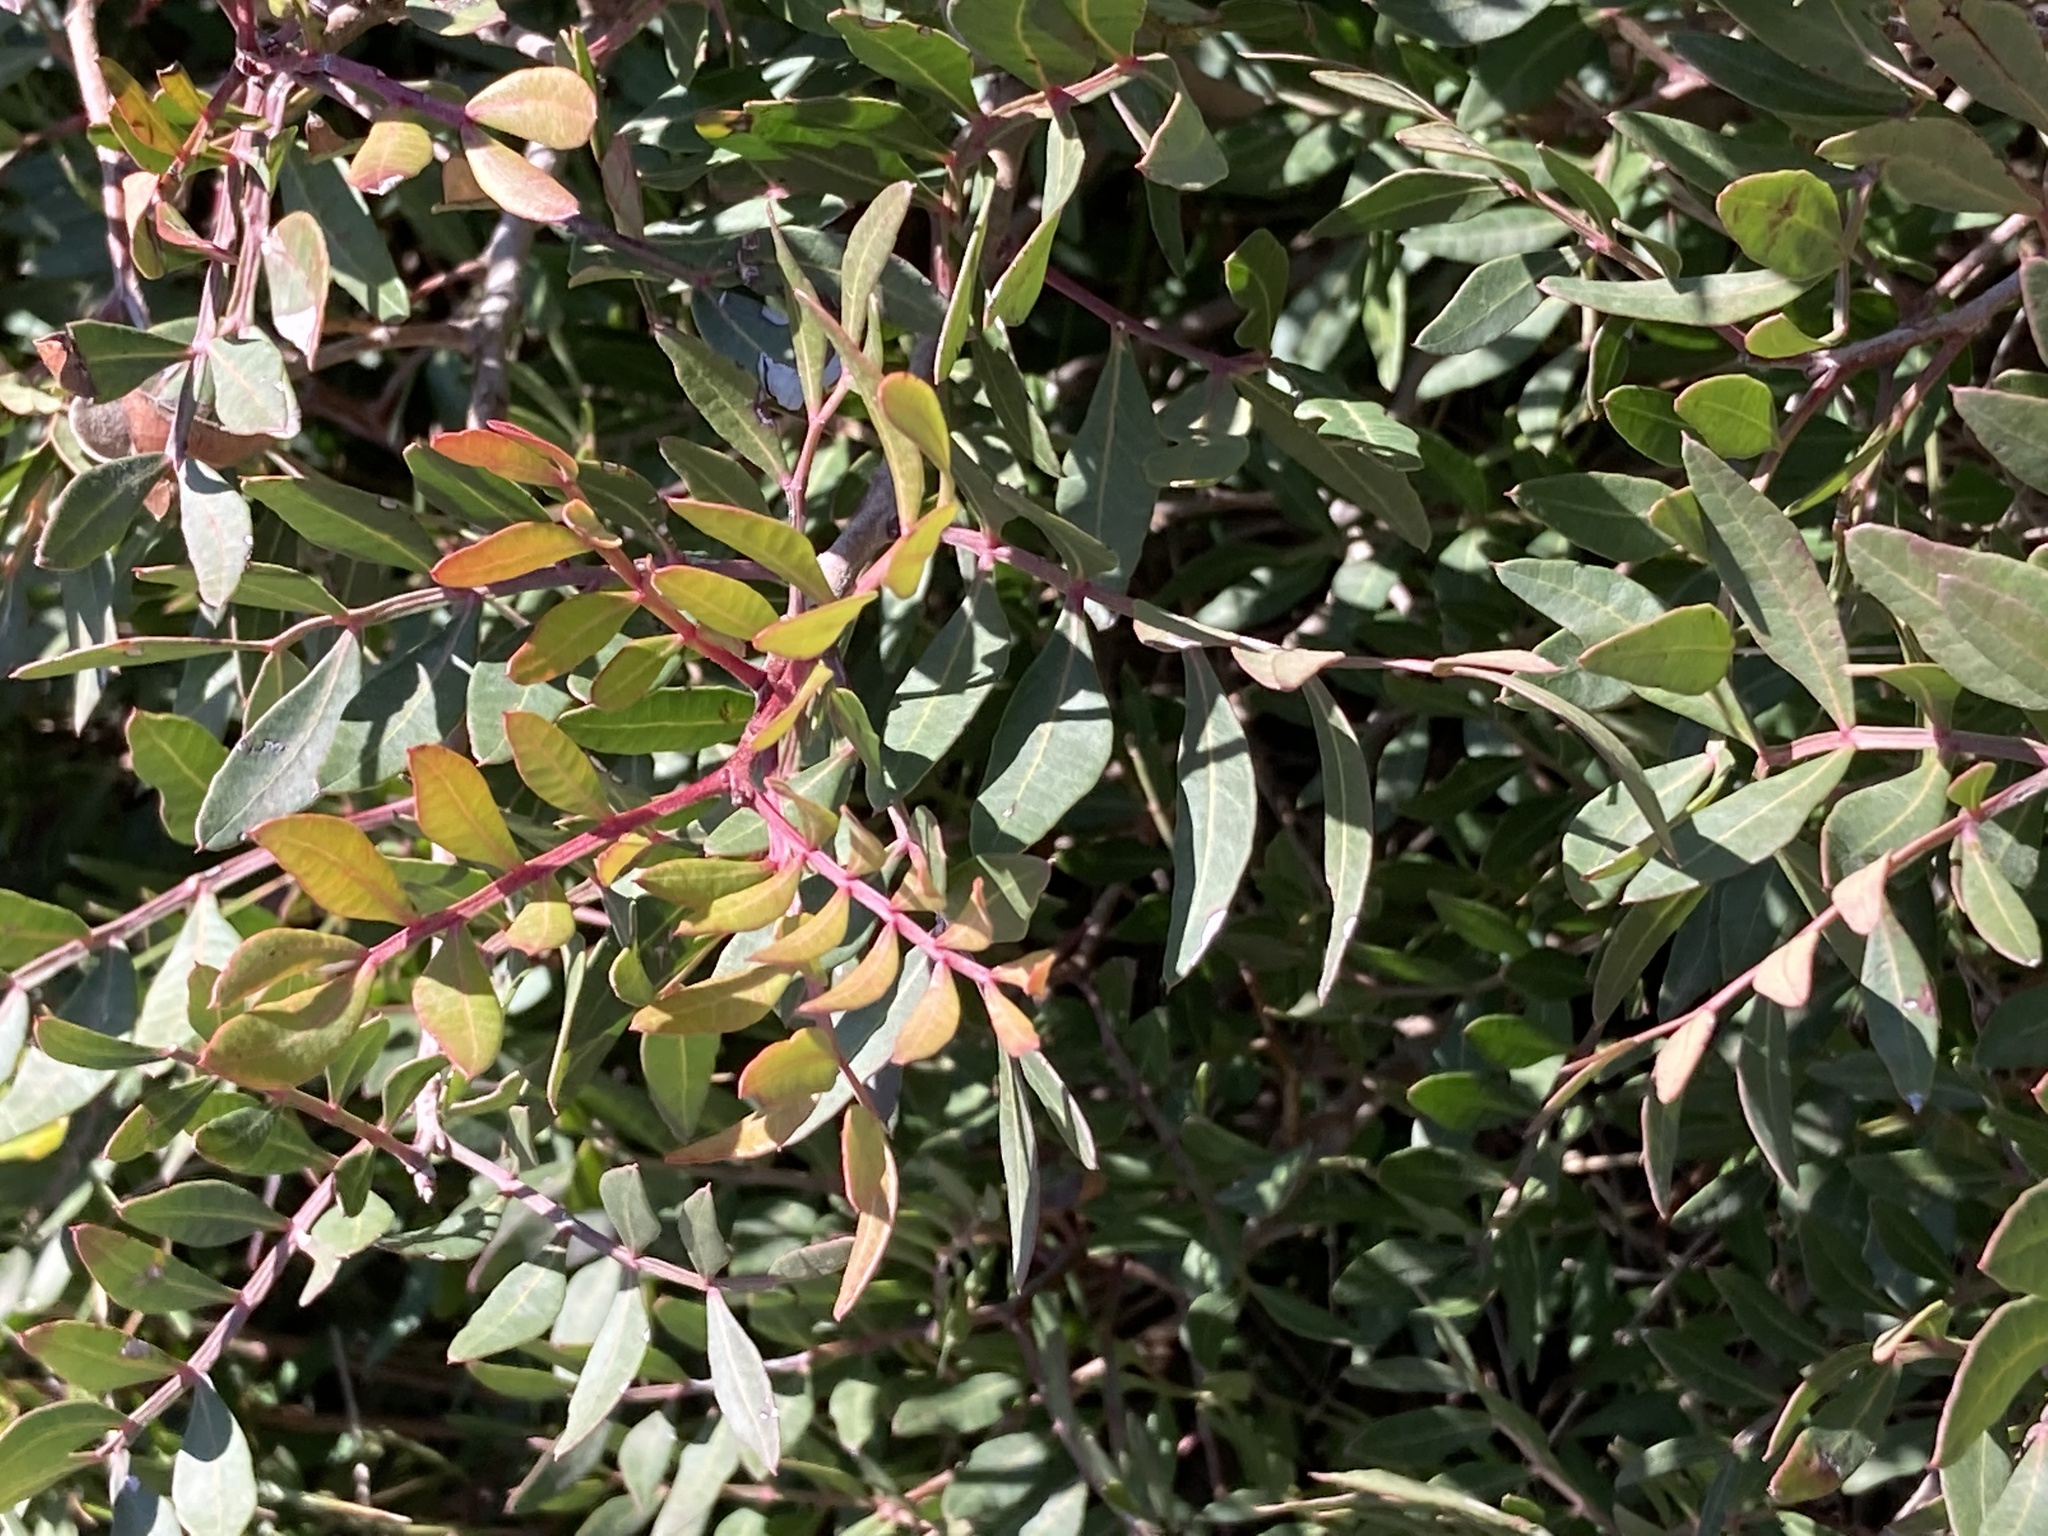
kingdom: Plantae
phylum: Tracheophyta
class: Magnoliopsida
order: Sapindales
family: Anacardiaceae
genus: Pistacia
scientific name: Pistacia lentiscus
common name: Lentisk
